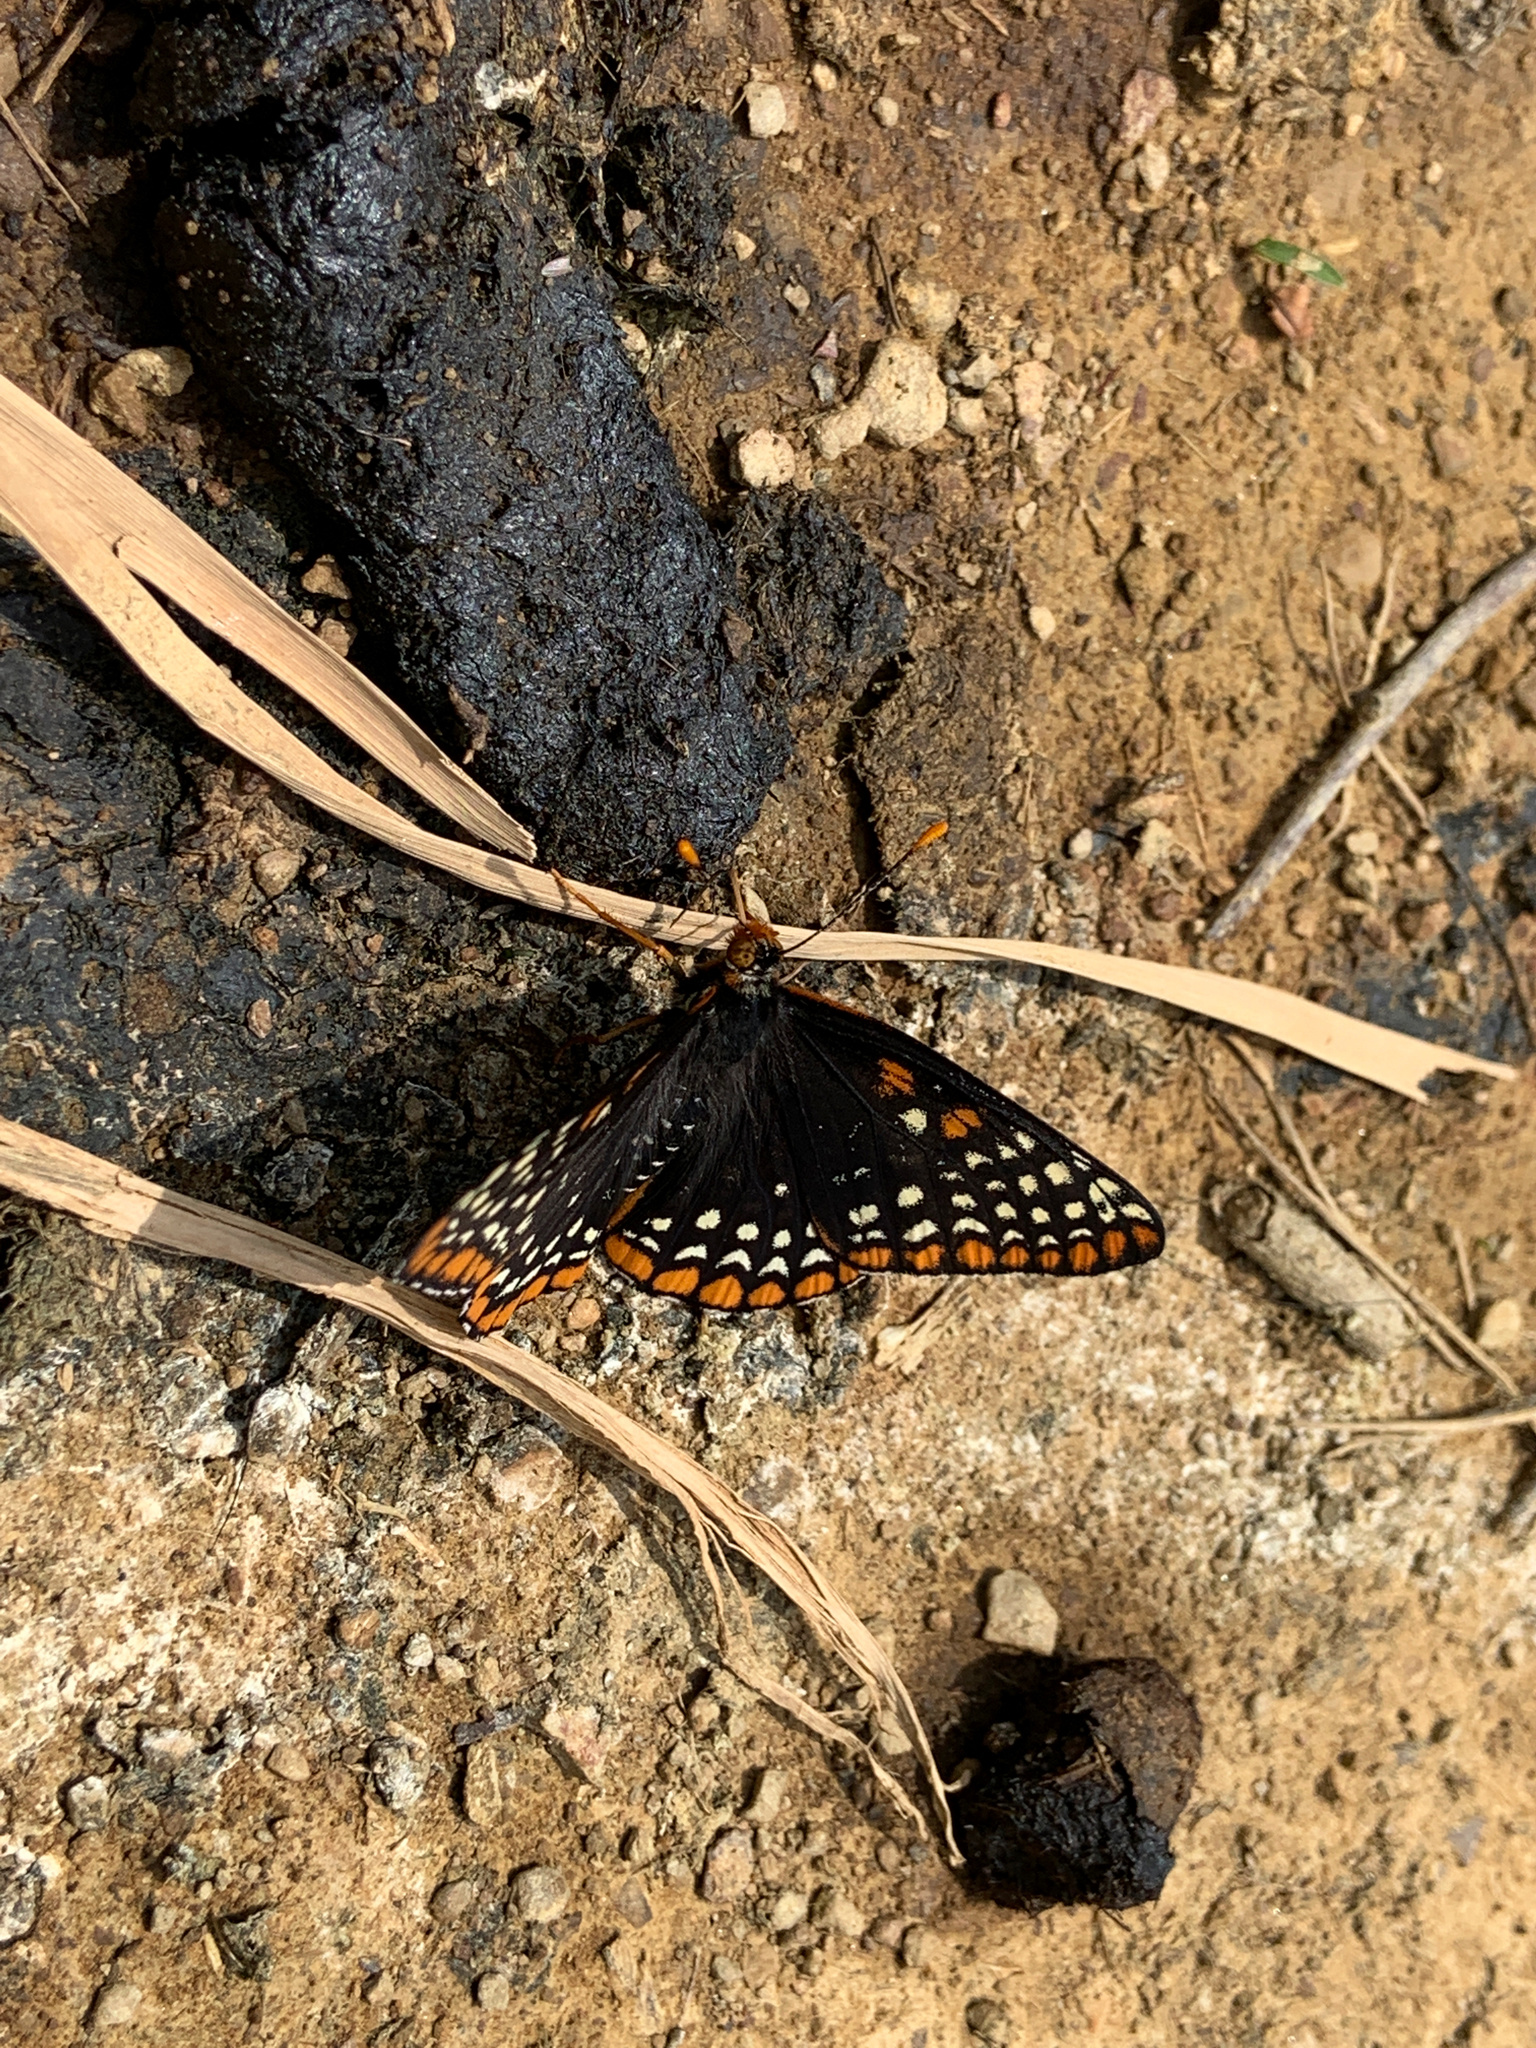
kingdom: Animalia
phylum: Arthropoda
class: Insecta
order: Lepidoptera
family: Nymphalidae
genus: Euphydryas
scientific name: Euphydryas phaeton
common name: Baltimore checkerspot
